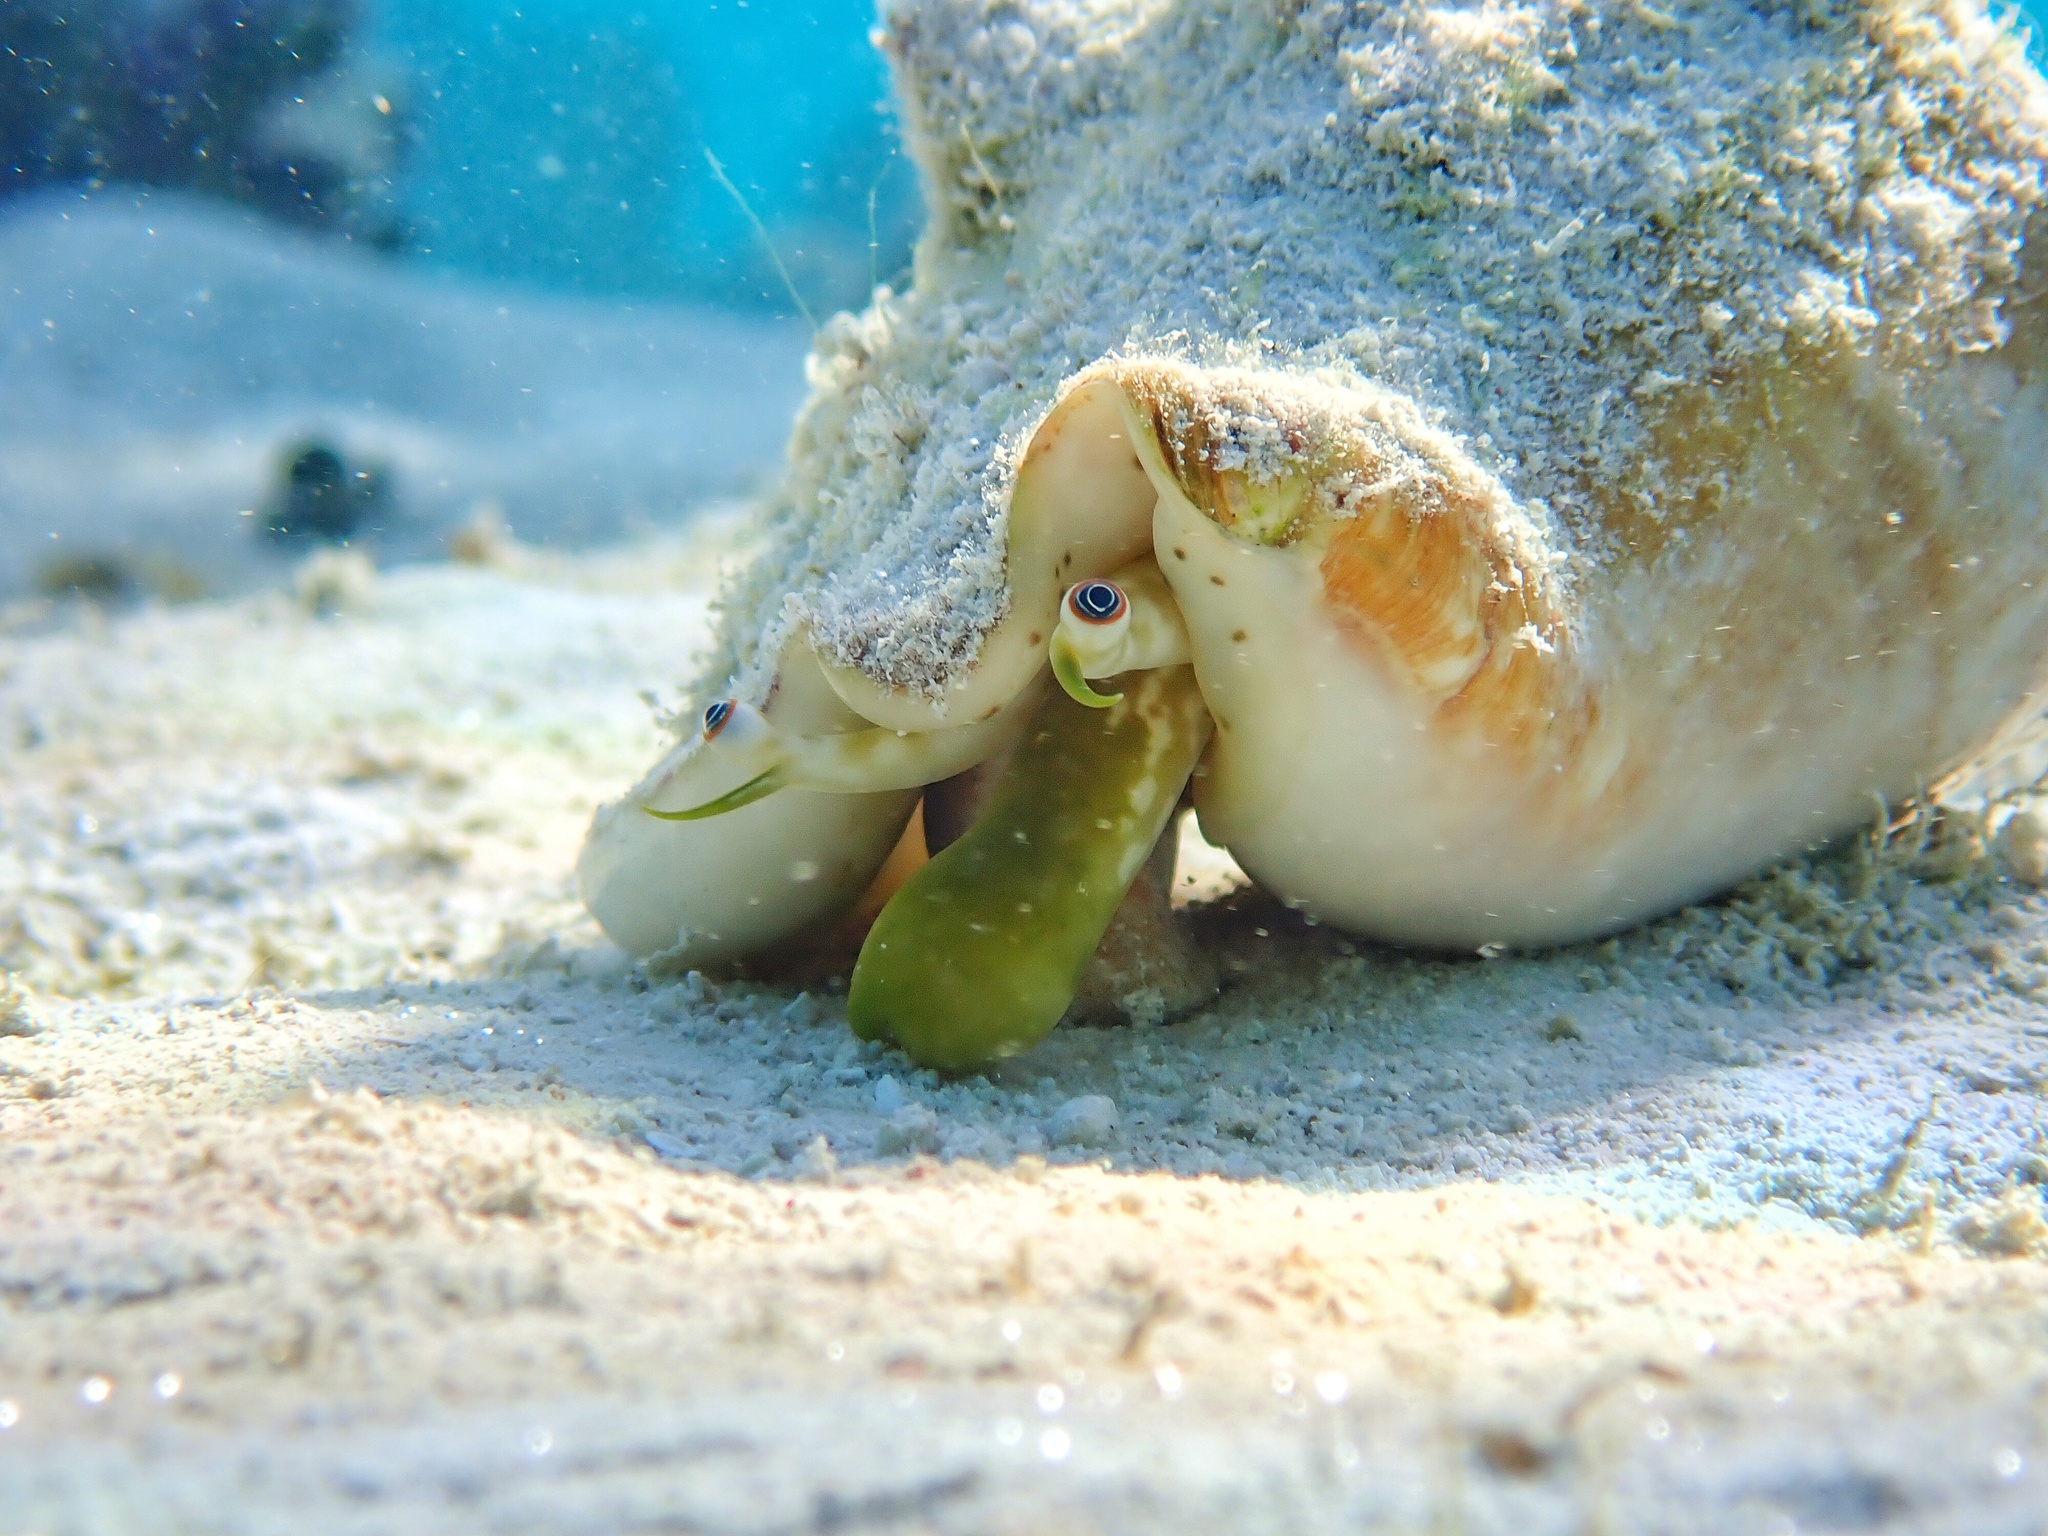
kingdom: Animalia
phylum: Mollusca
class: Gastropoda
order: Littorinimorpha
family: Strombidae
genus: Macrostrombus
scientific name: Macrostrombus costatus
